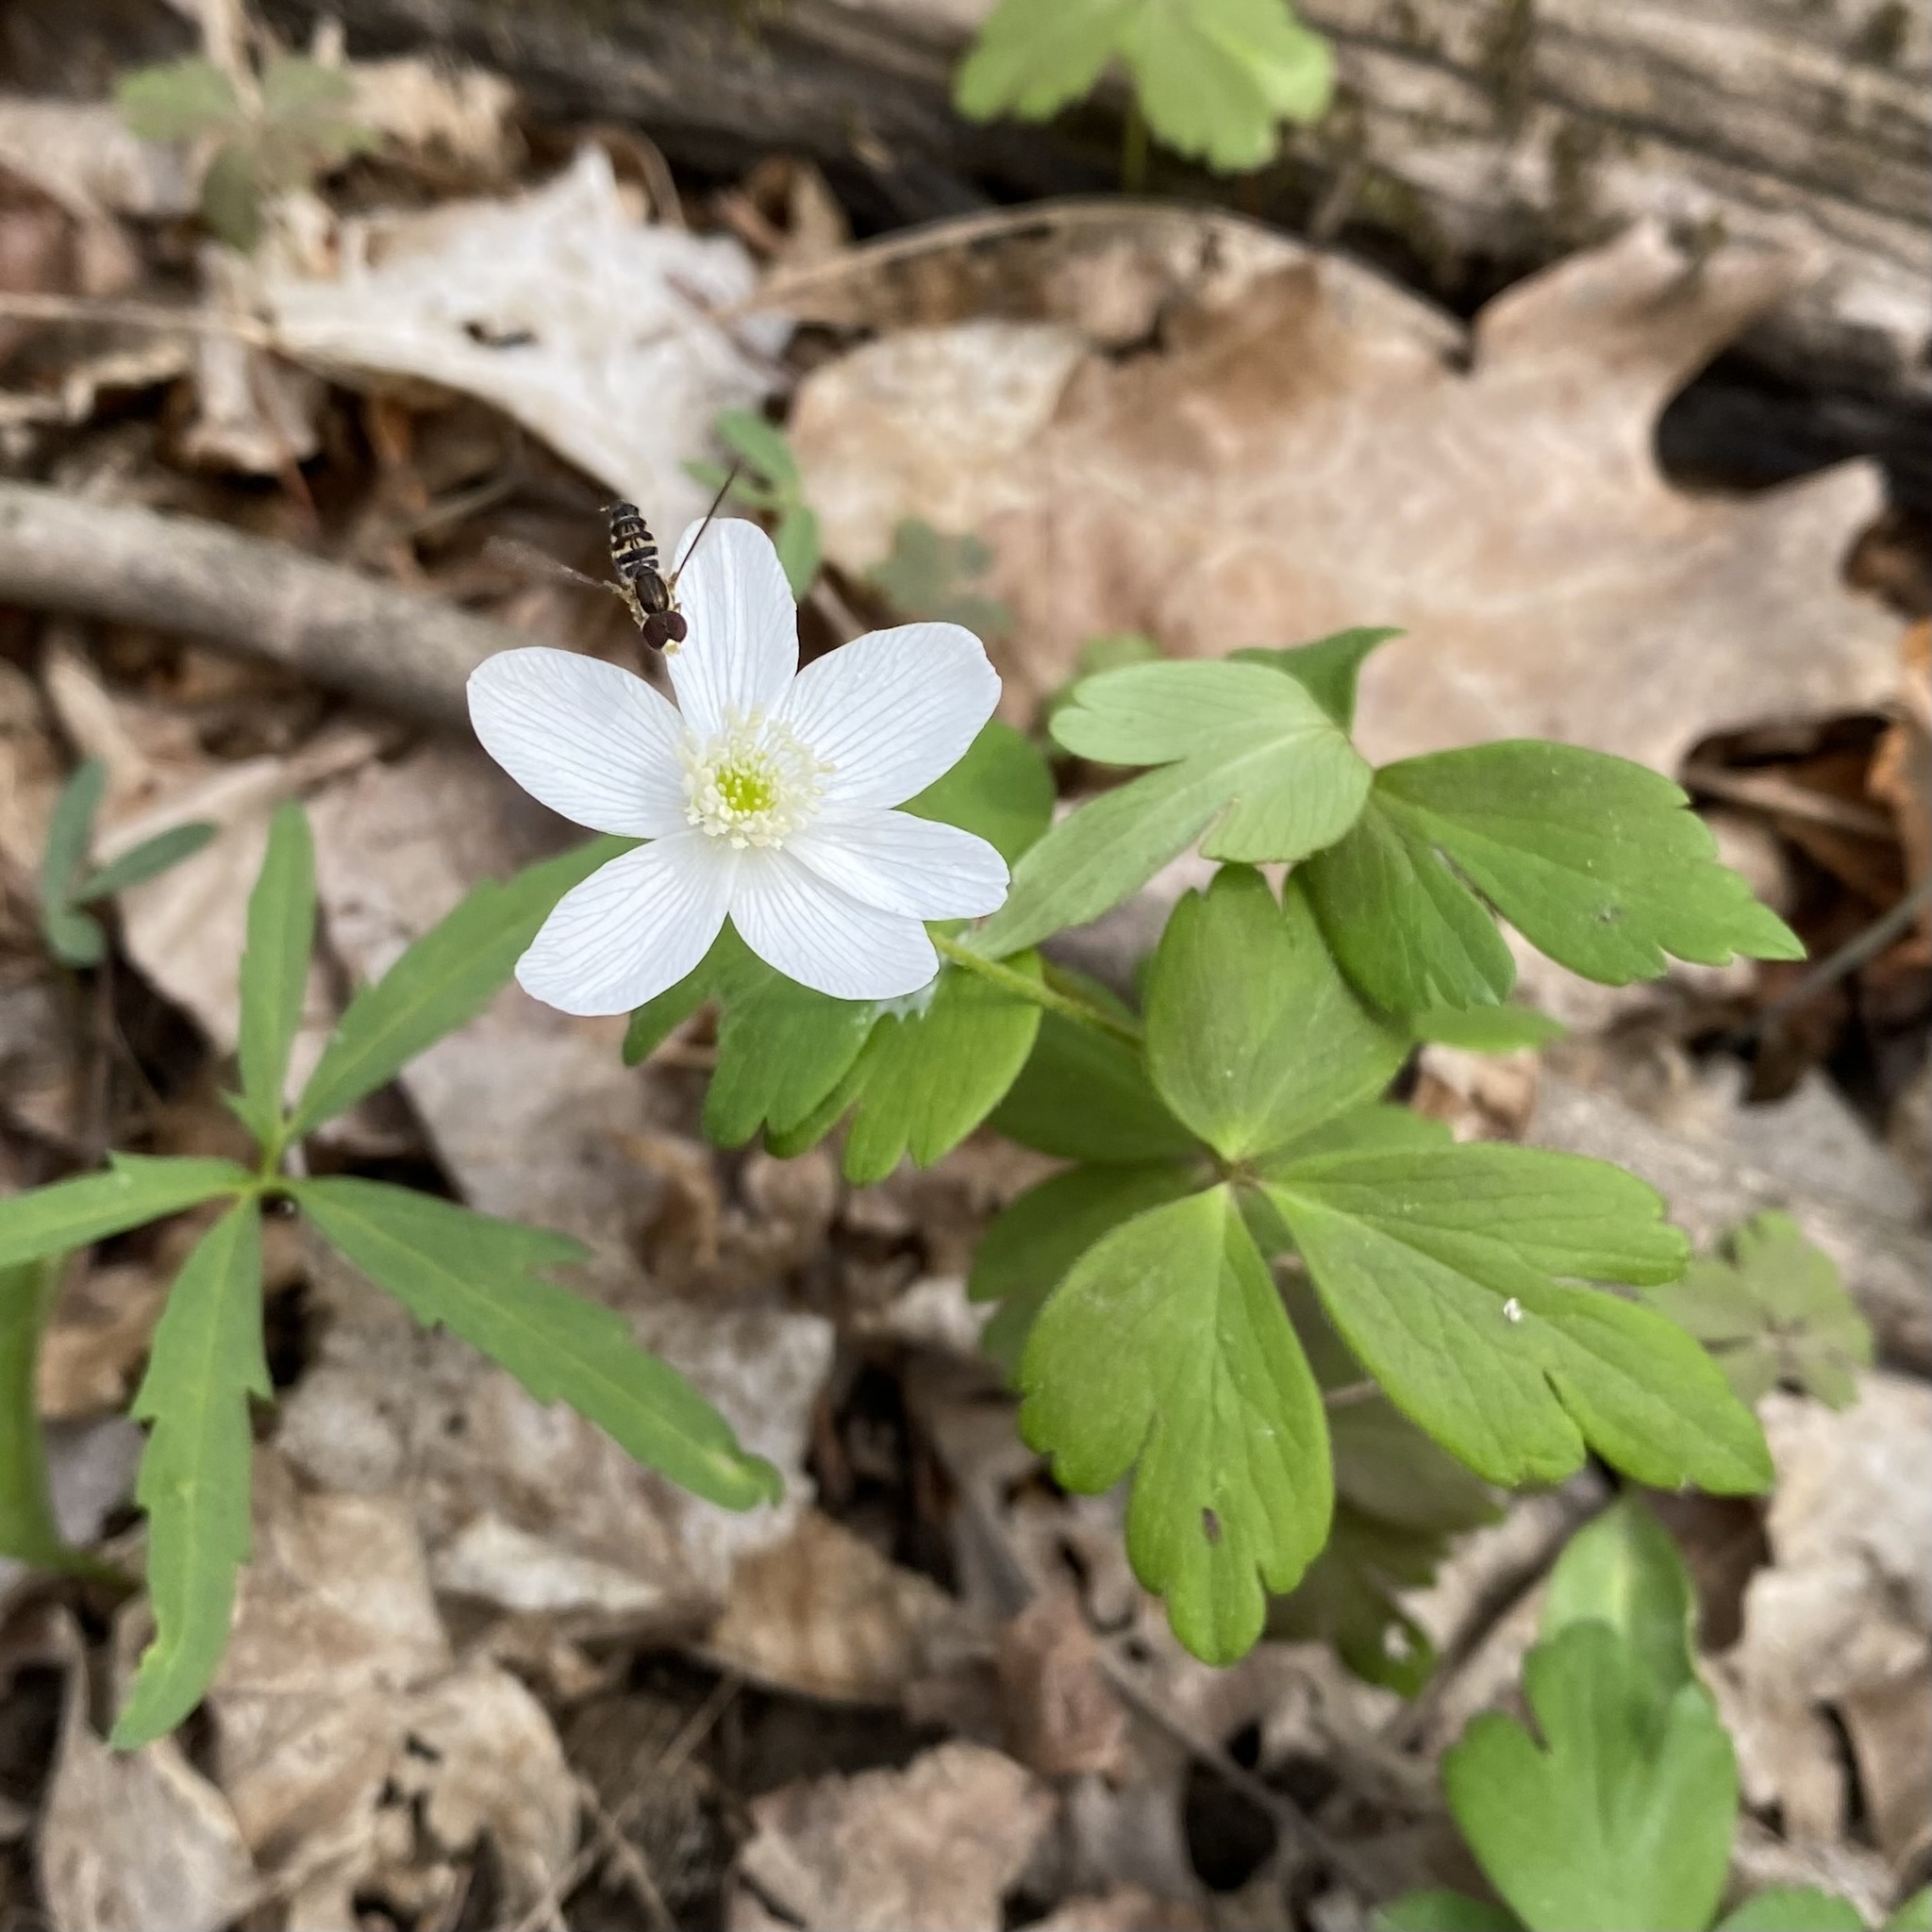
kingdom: Plantae
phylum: Tracheophyta
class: Magnoliopsida
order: Ranunculales
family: Ranunculaceae
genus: Anemone
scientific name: Anemone quinquefolia
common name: Wood anemone
